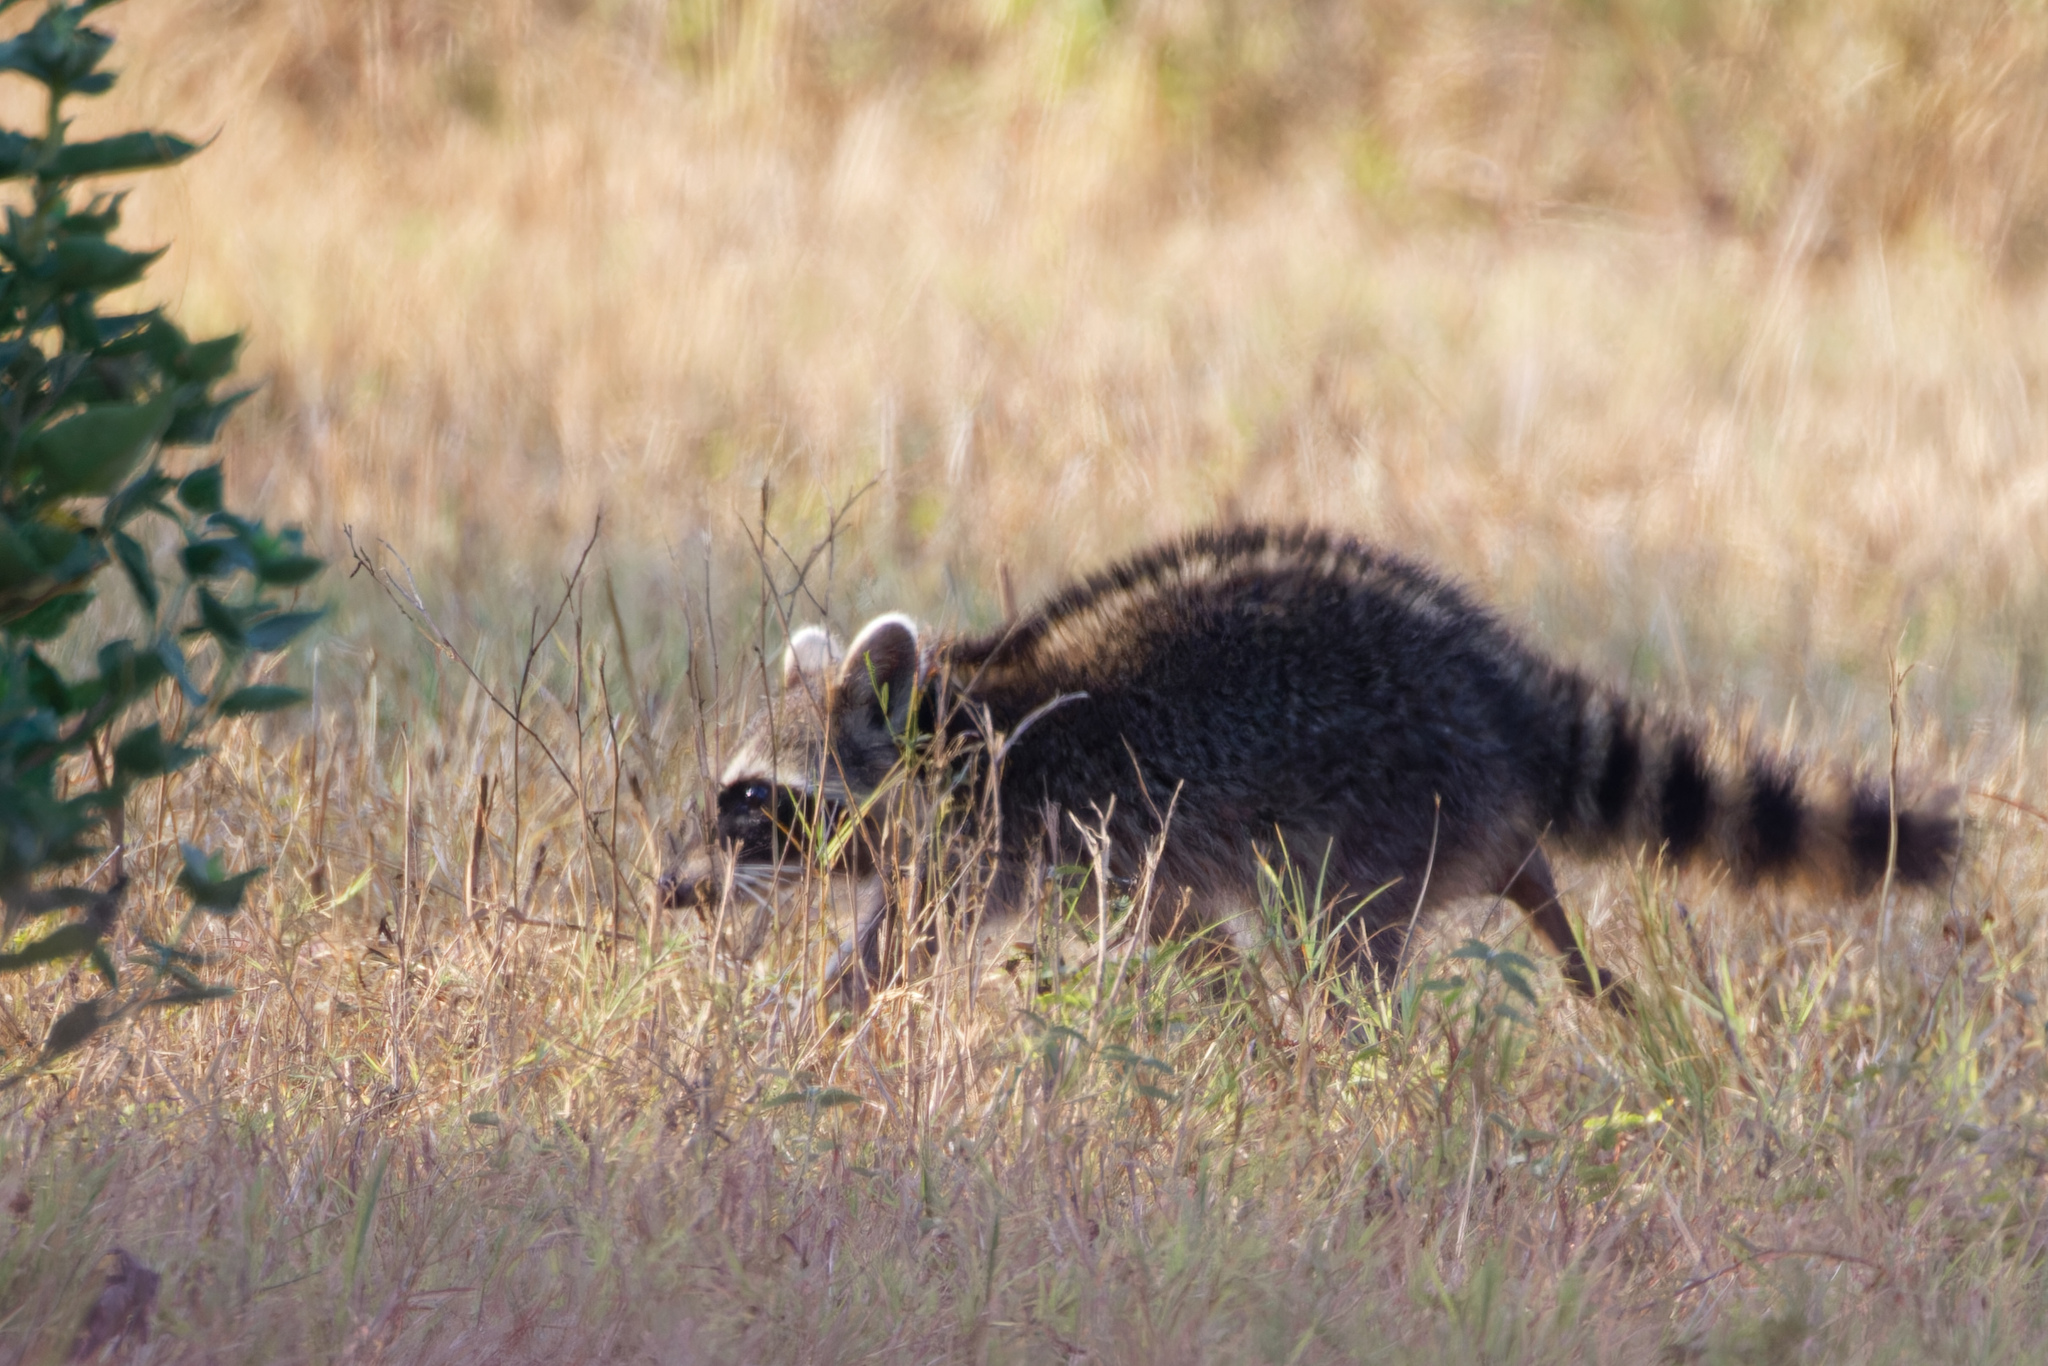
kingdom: Animalia
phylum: Chordata
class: Mammalia
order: Carnivora
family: Procyonidae
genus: Procyon
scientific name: Procyon lotor
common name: Raccoon
